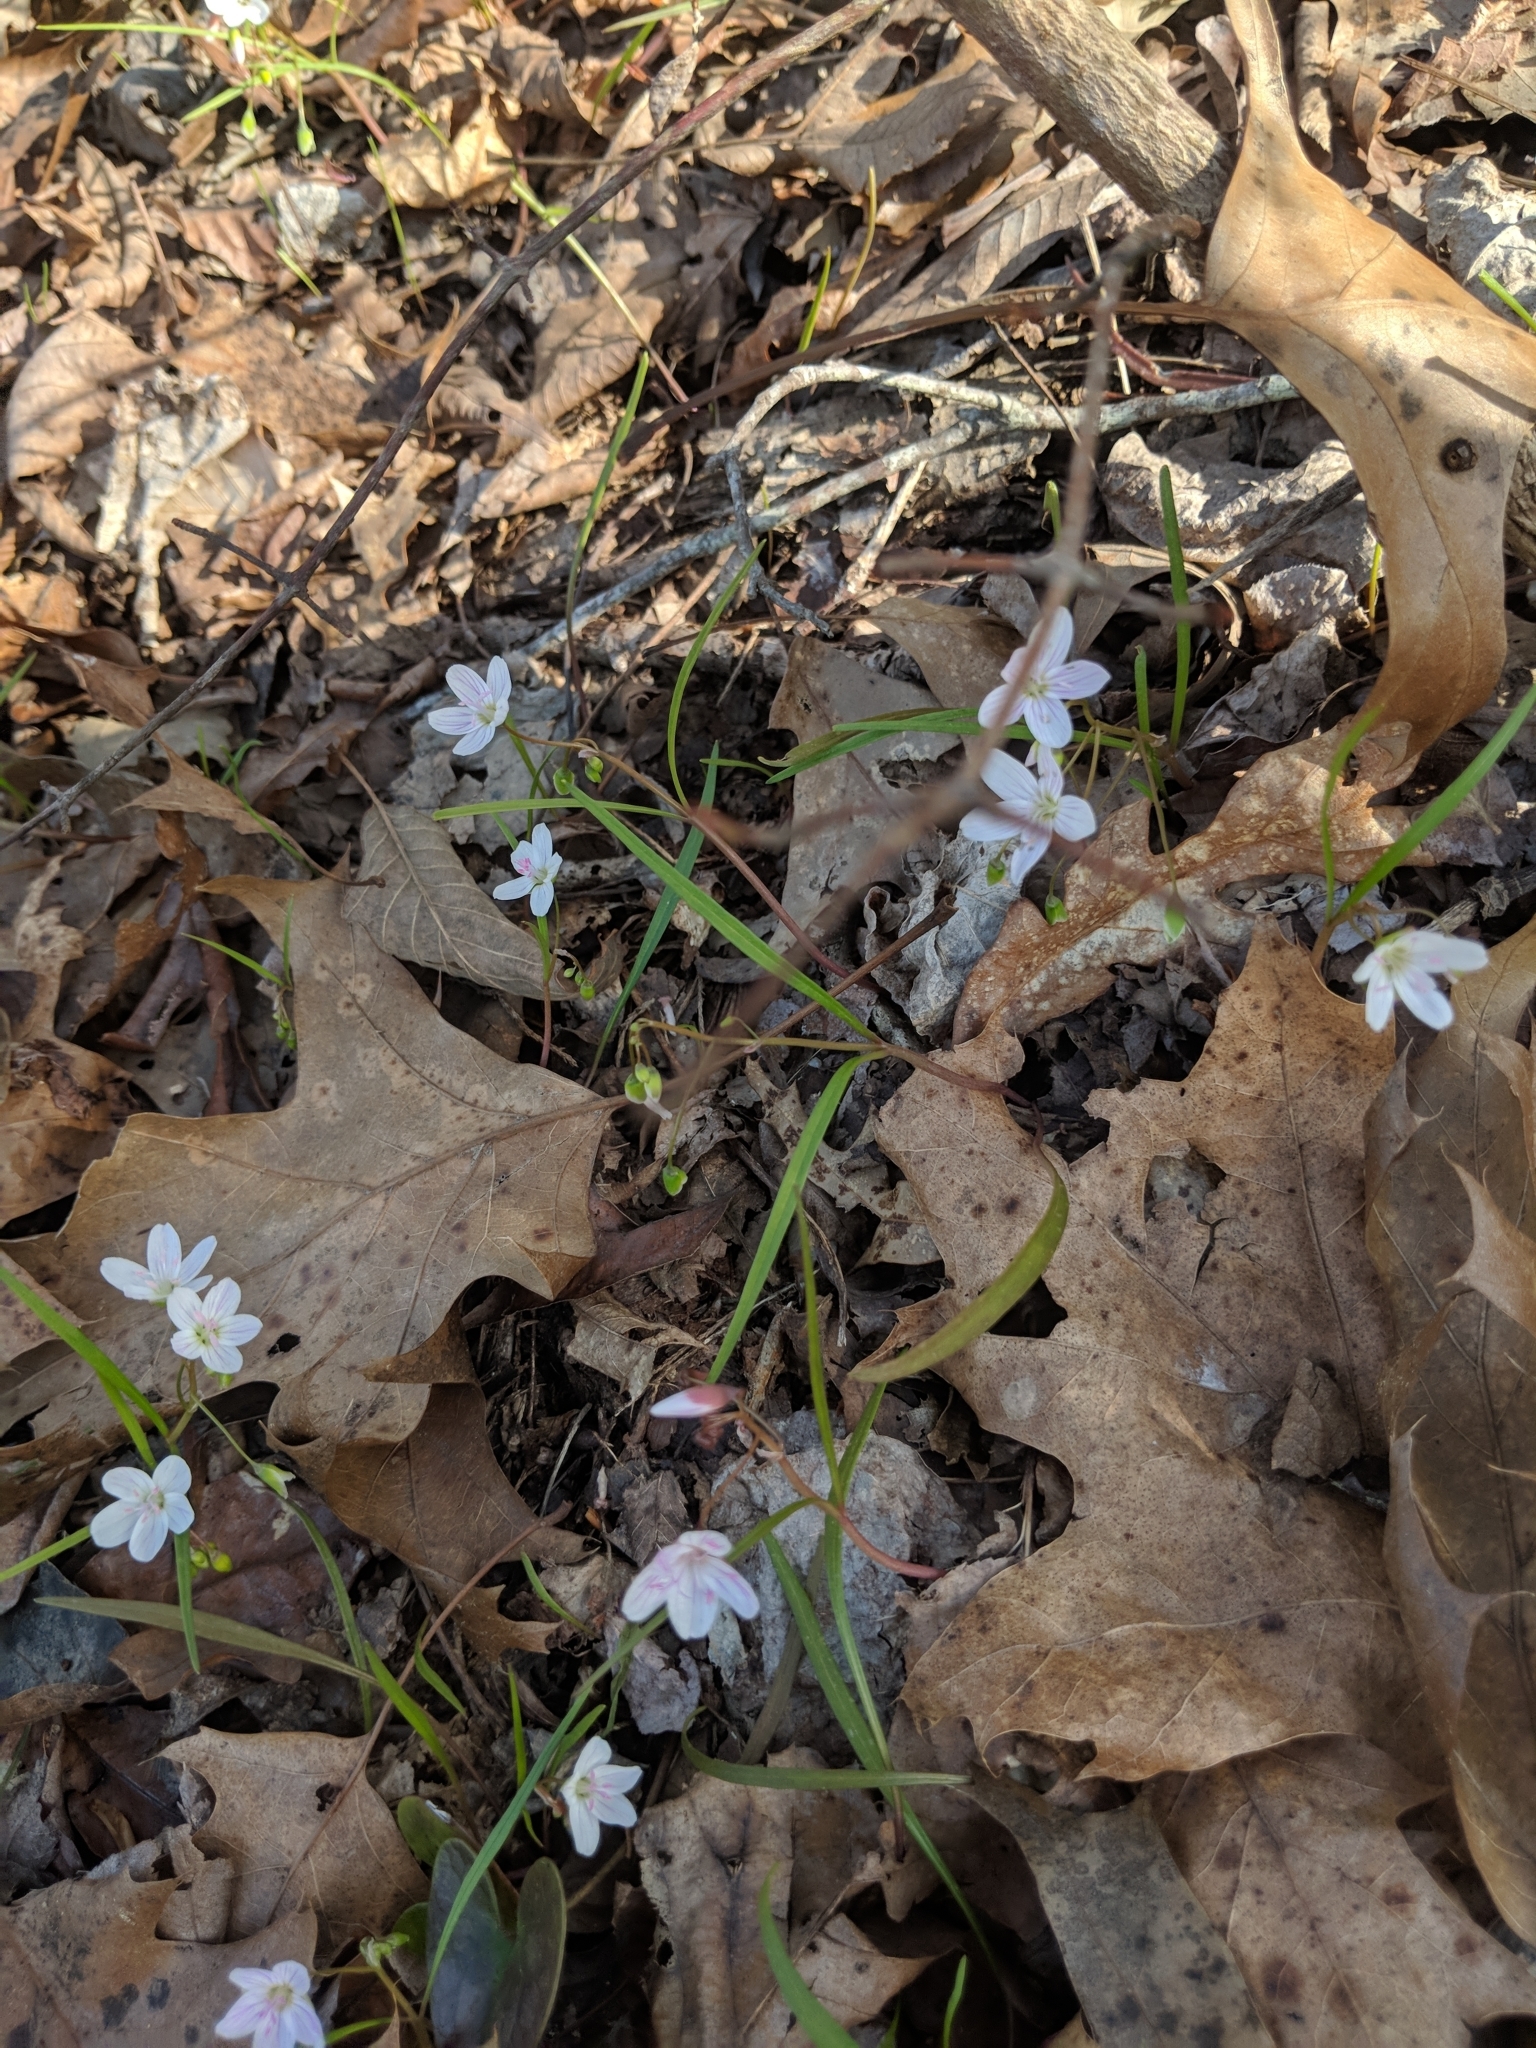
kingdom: Plantae
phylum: Tracheophyta
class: Magnoliopsida
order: Caryophyllales
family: Montiaceae
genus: Claytonia
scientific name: Claytonia virginica
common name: Virginia springbeauty
